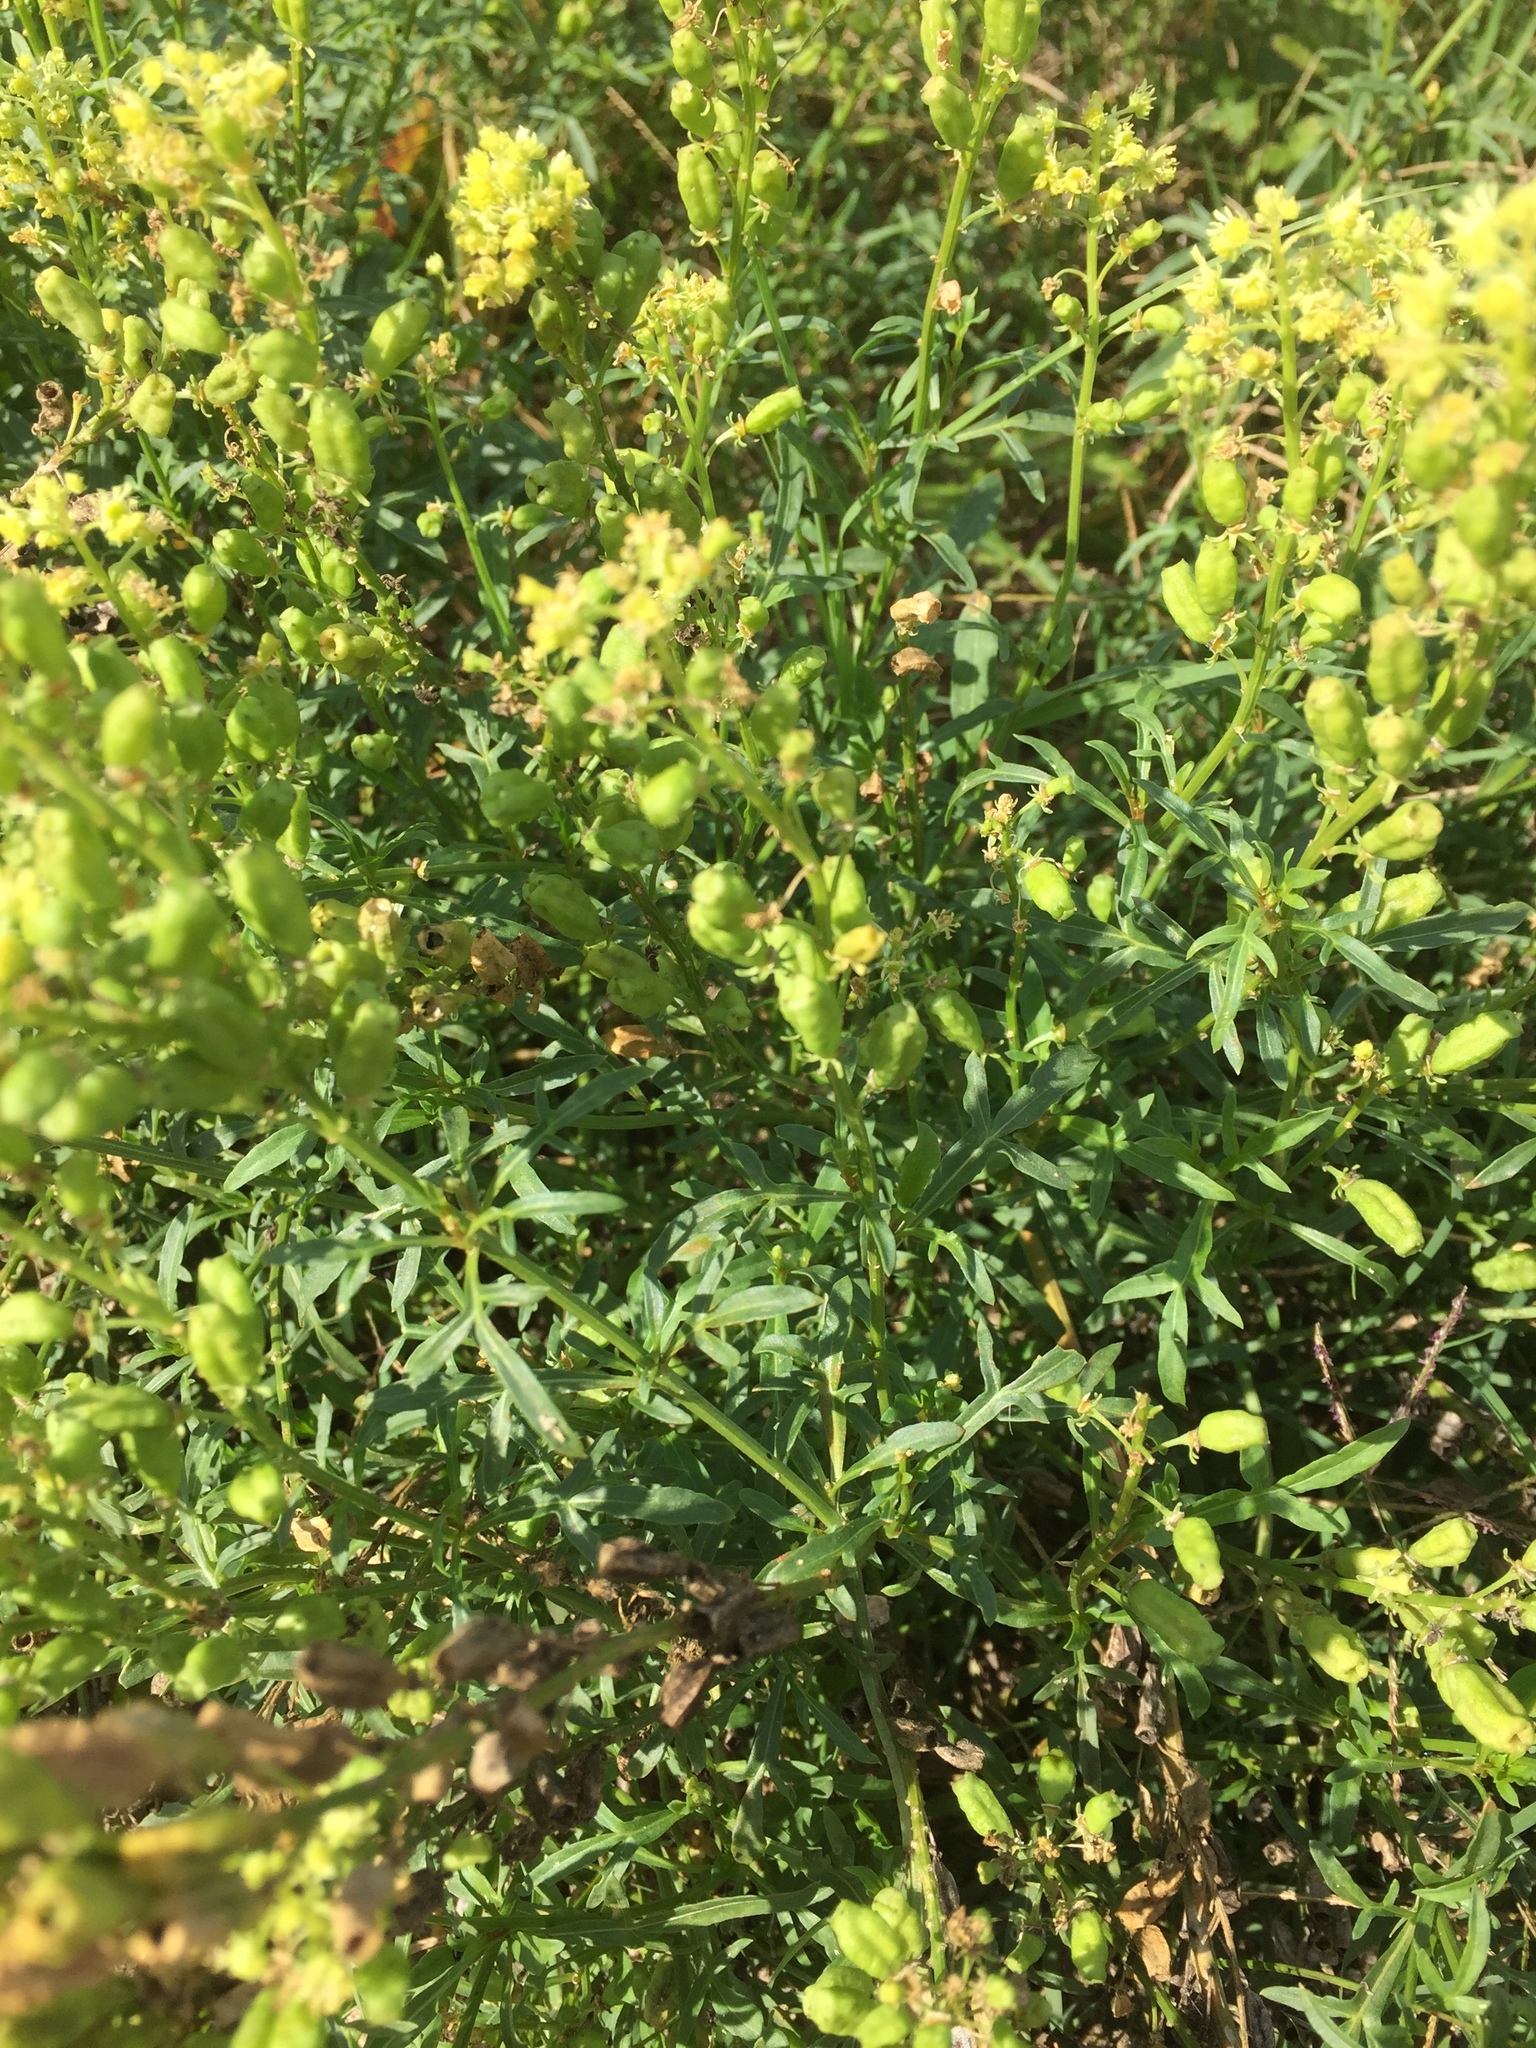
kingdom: Plantae
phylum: Tracheophyta
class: Magnoliopsida
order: Brassicales
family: Resedaceae
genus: Reseda
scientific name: Reseda lutea
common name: Wild mignonette
